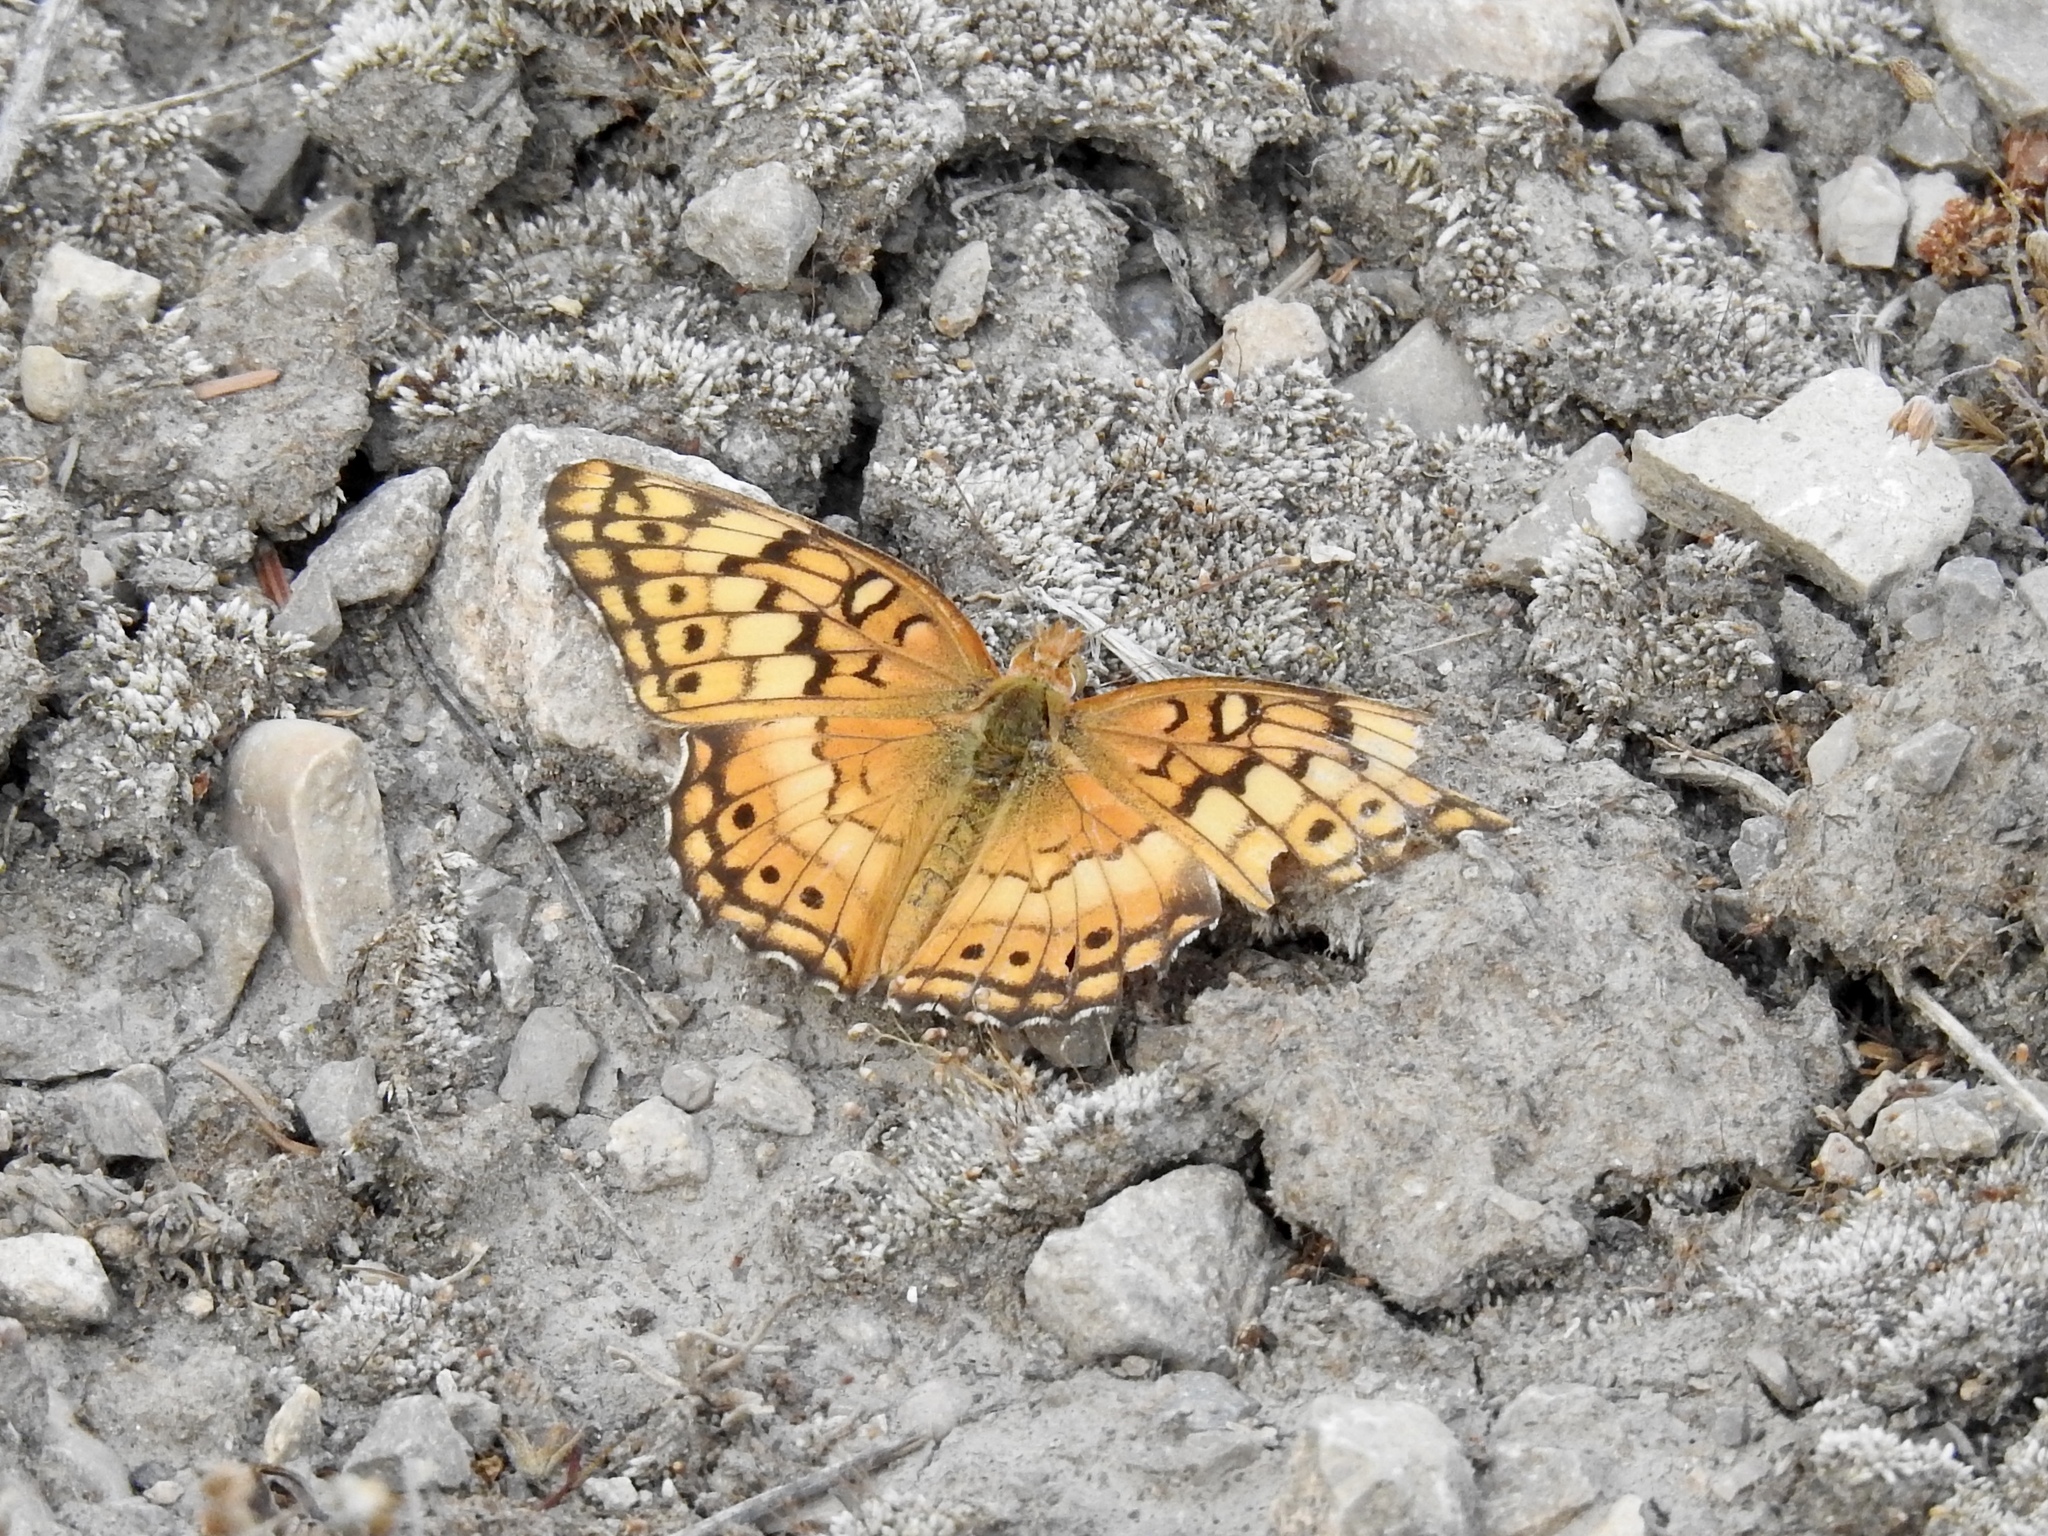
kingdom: Animalia
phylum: Arthropoda
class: Insecta
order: Lepidoptera
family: Nymphalidae
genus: Euptoieta
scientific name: Euptoieta claudia
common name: Variegated fritillary
